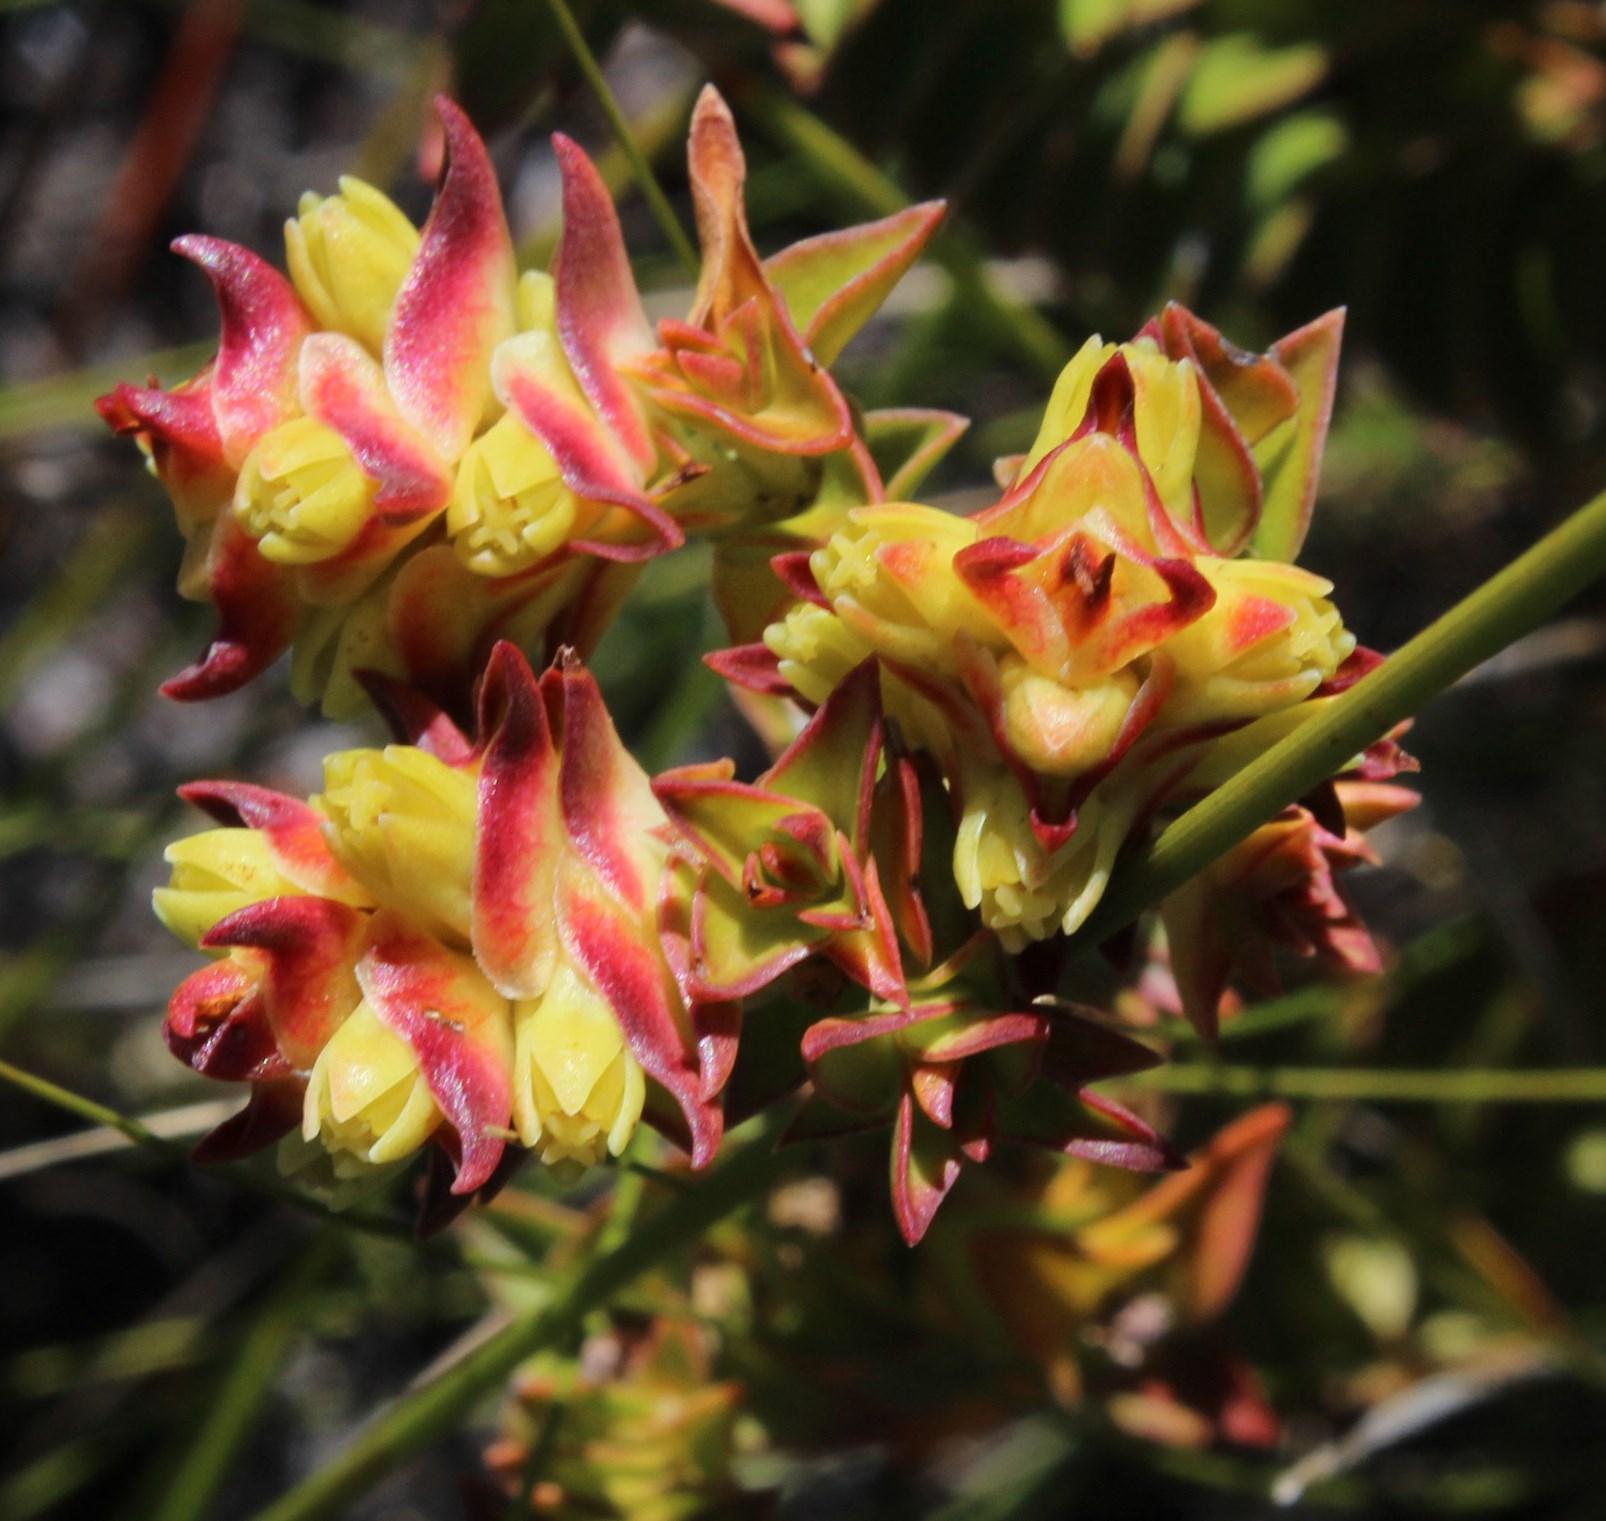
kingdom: Plantae
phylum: Tracheophyta
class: Magnoliopsida
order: Myrtales
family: Penaeaceae
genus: Penaea
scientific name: Penaea mucronata
